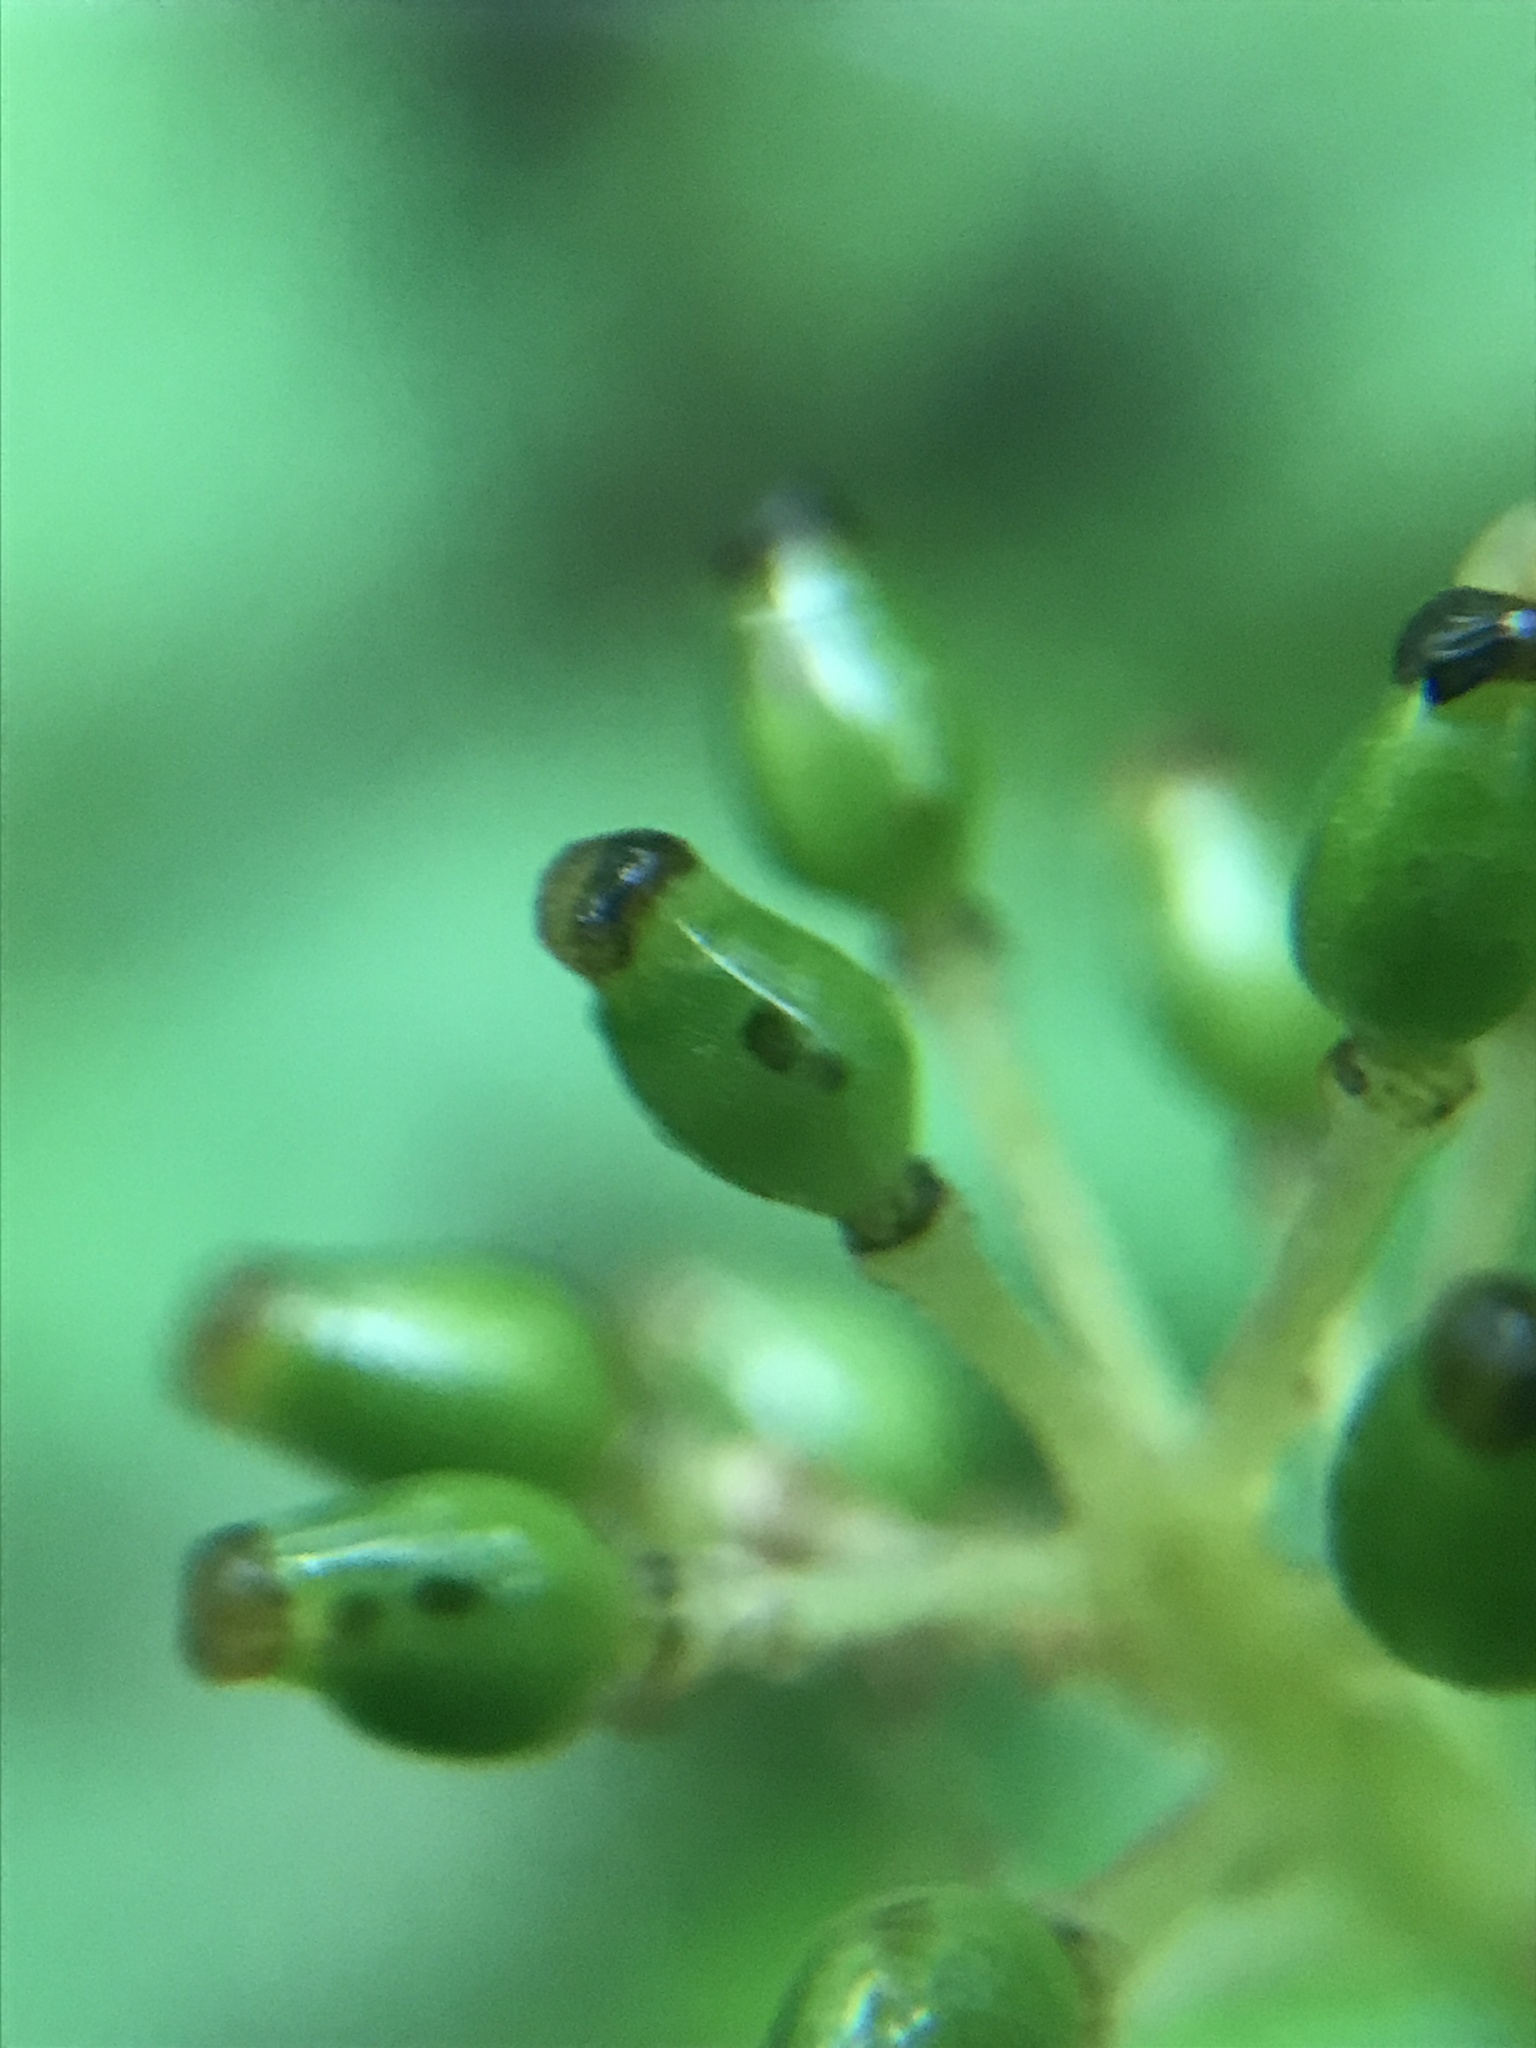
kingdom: Plantae
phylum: Tracheophyta
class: Magnoliopsida
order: Ranunculales
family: Ranunculaceae
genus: Actaea
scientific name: Actaea rubra
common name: Red baneberry
